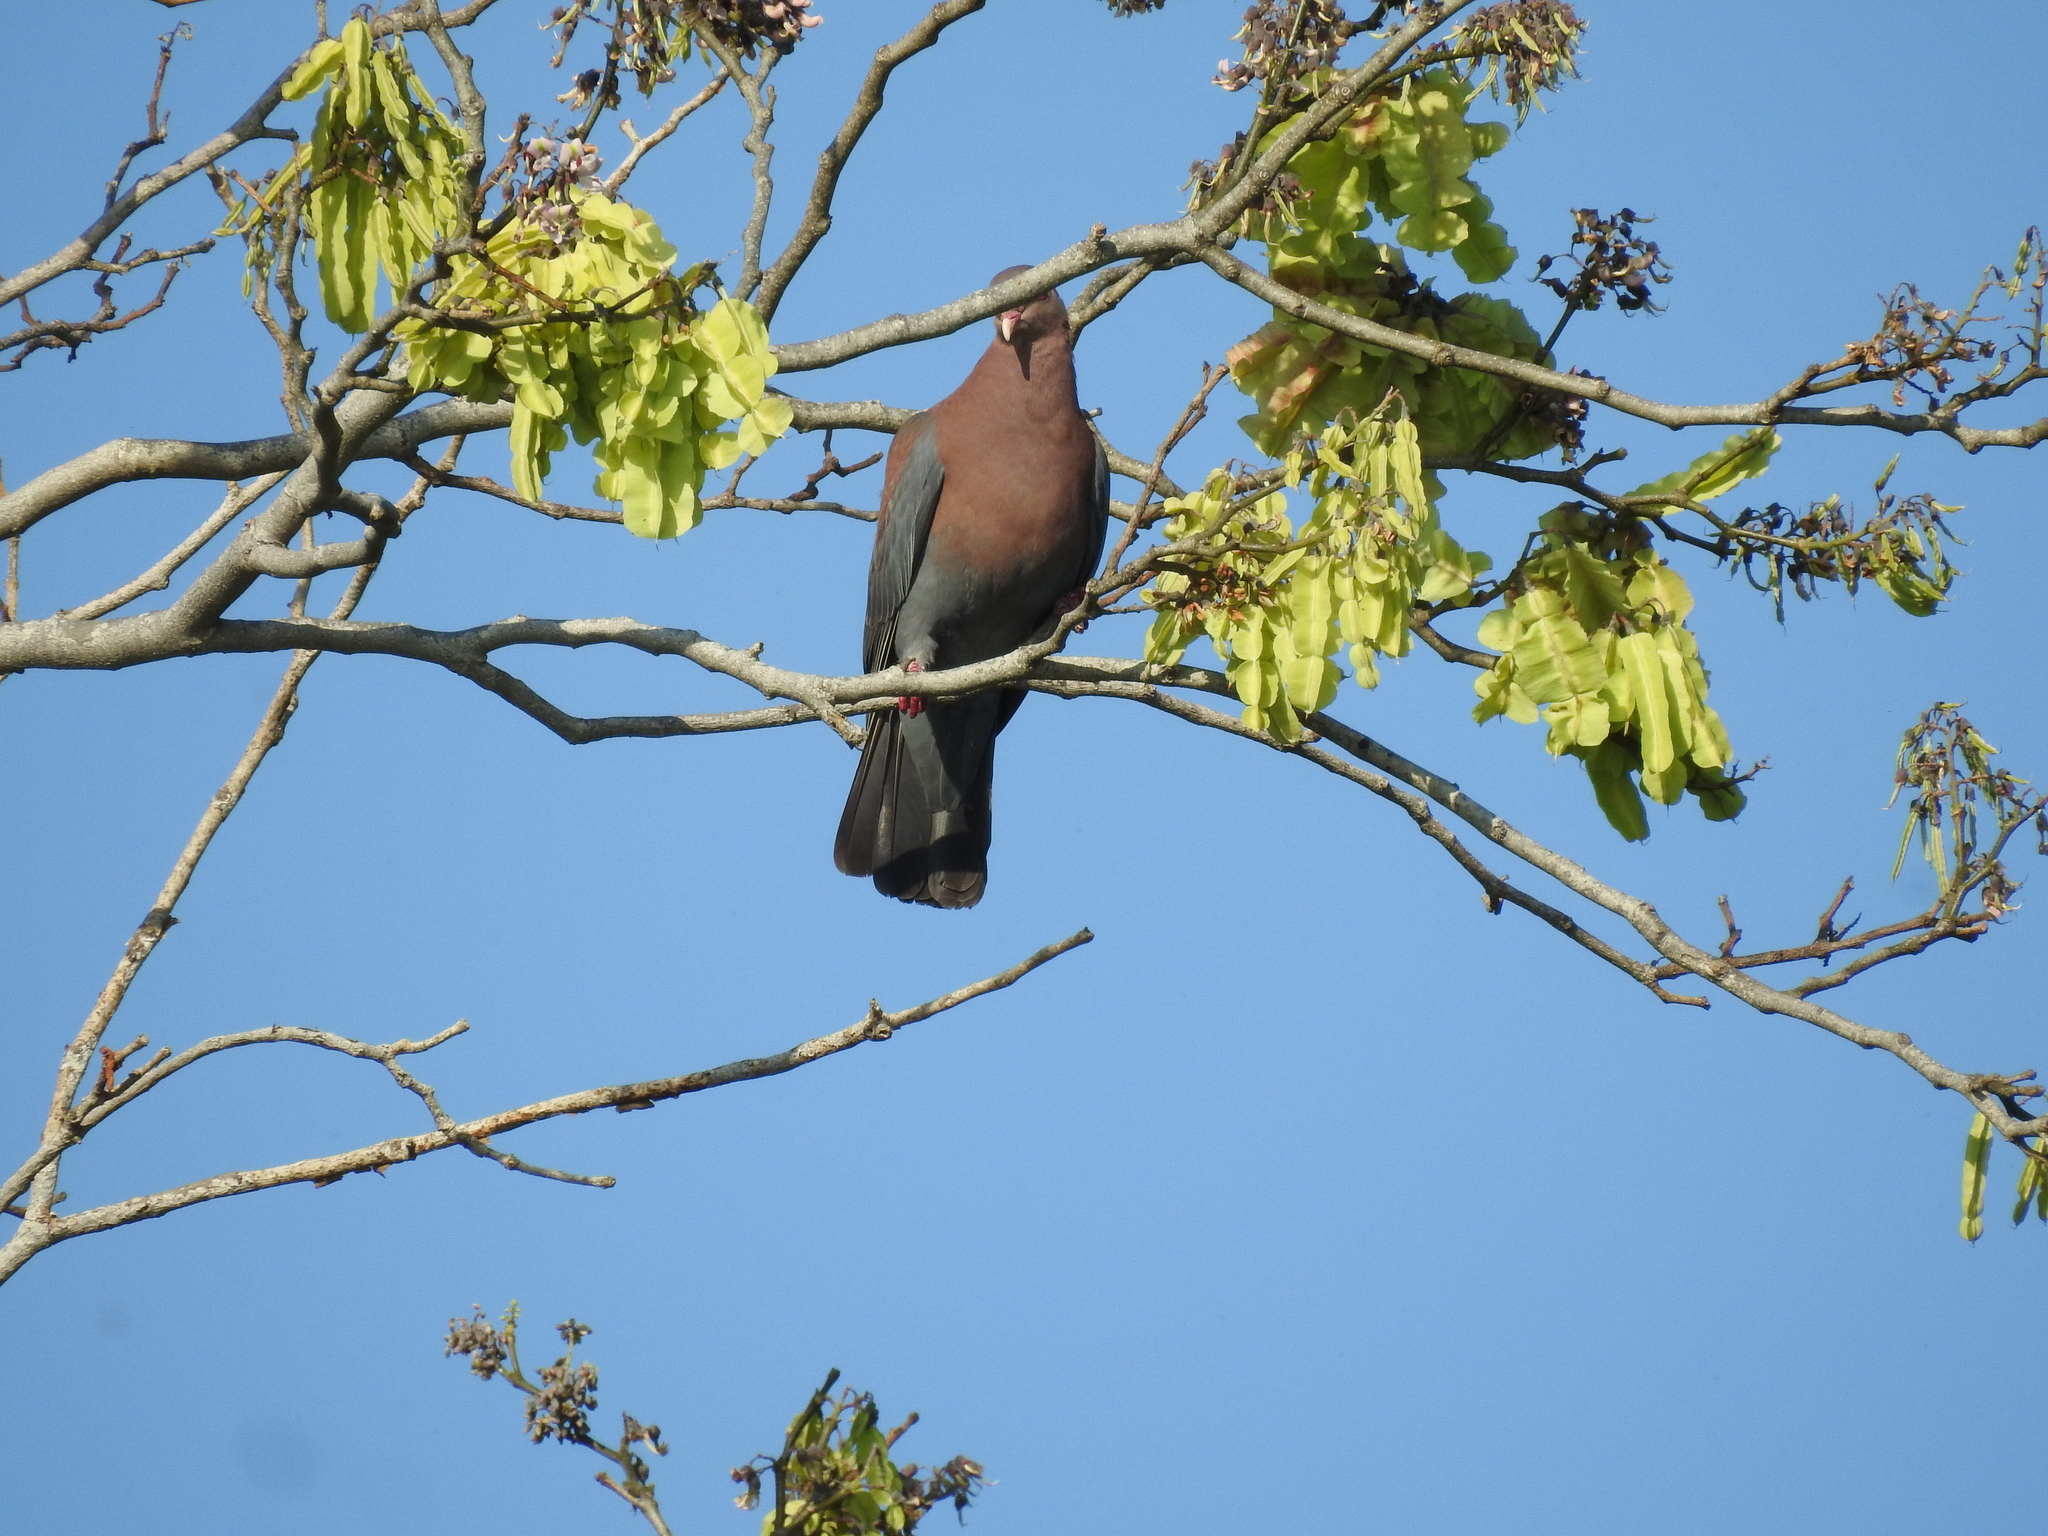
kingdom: Animalia
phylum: Chordata
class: Aves
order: Columbiformes
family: Columbidae
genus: Patagioenas
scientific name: Patagioenas flavirostris
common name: Red-billed pigeon
